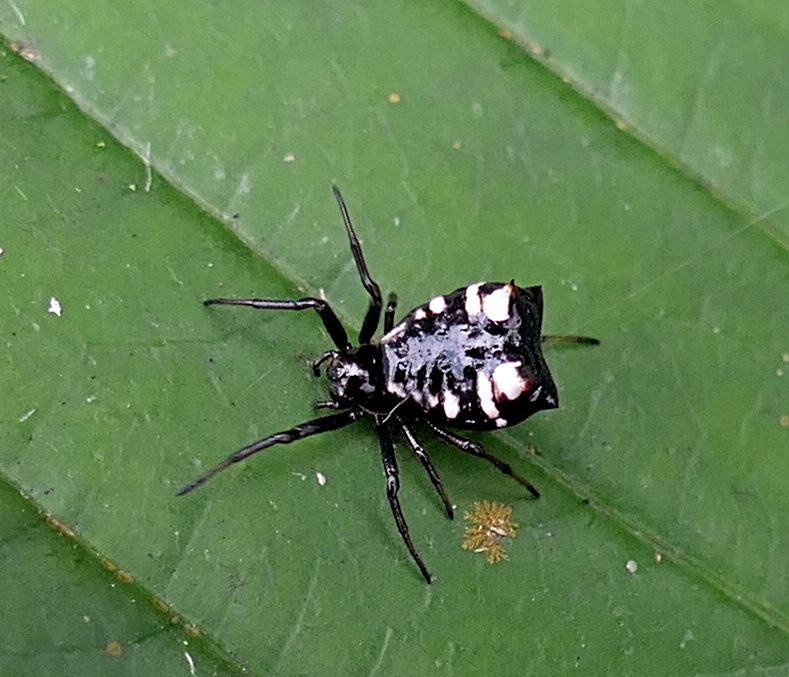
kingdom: Animalia
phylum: Arthropoda
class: Arachnida
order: Araneae
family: Araneidae
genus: Micrathena
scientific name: Micrathena patruelis
